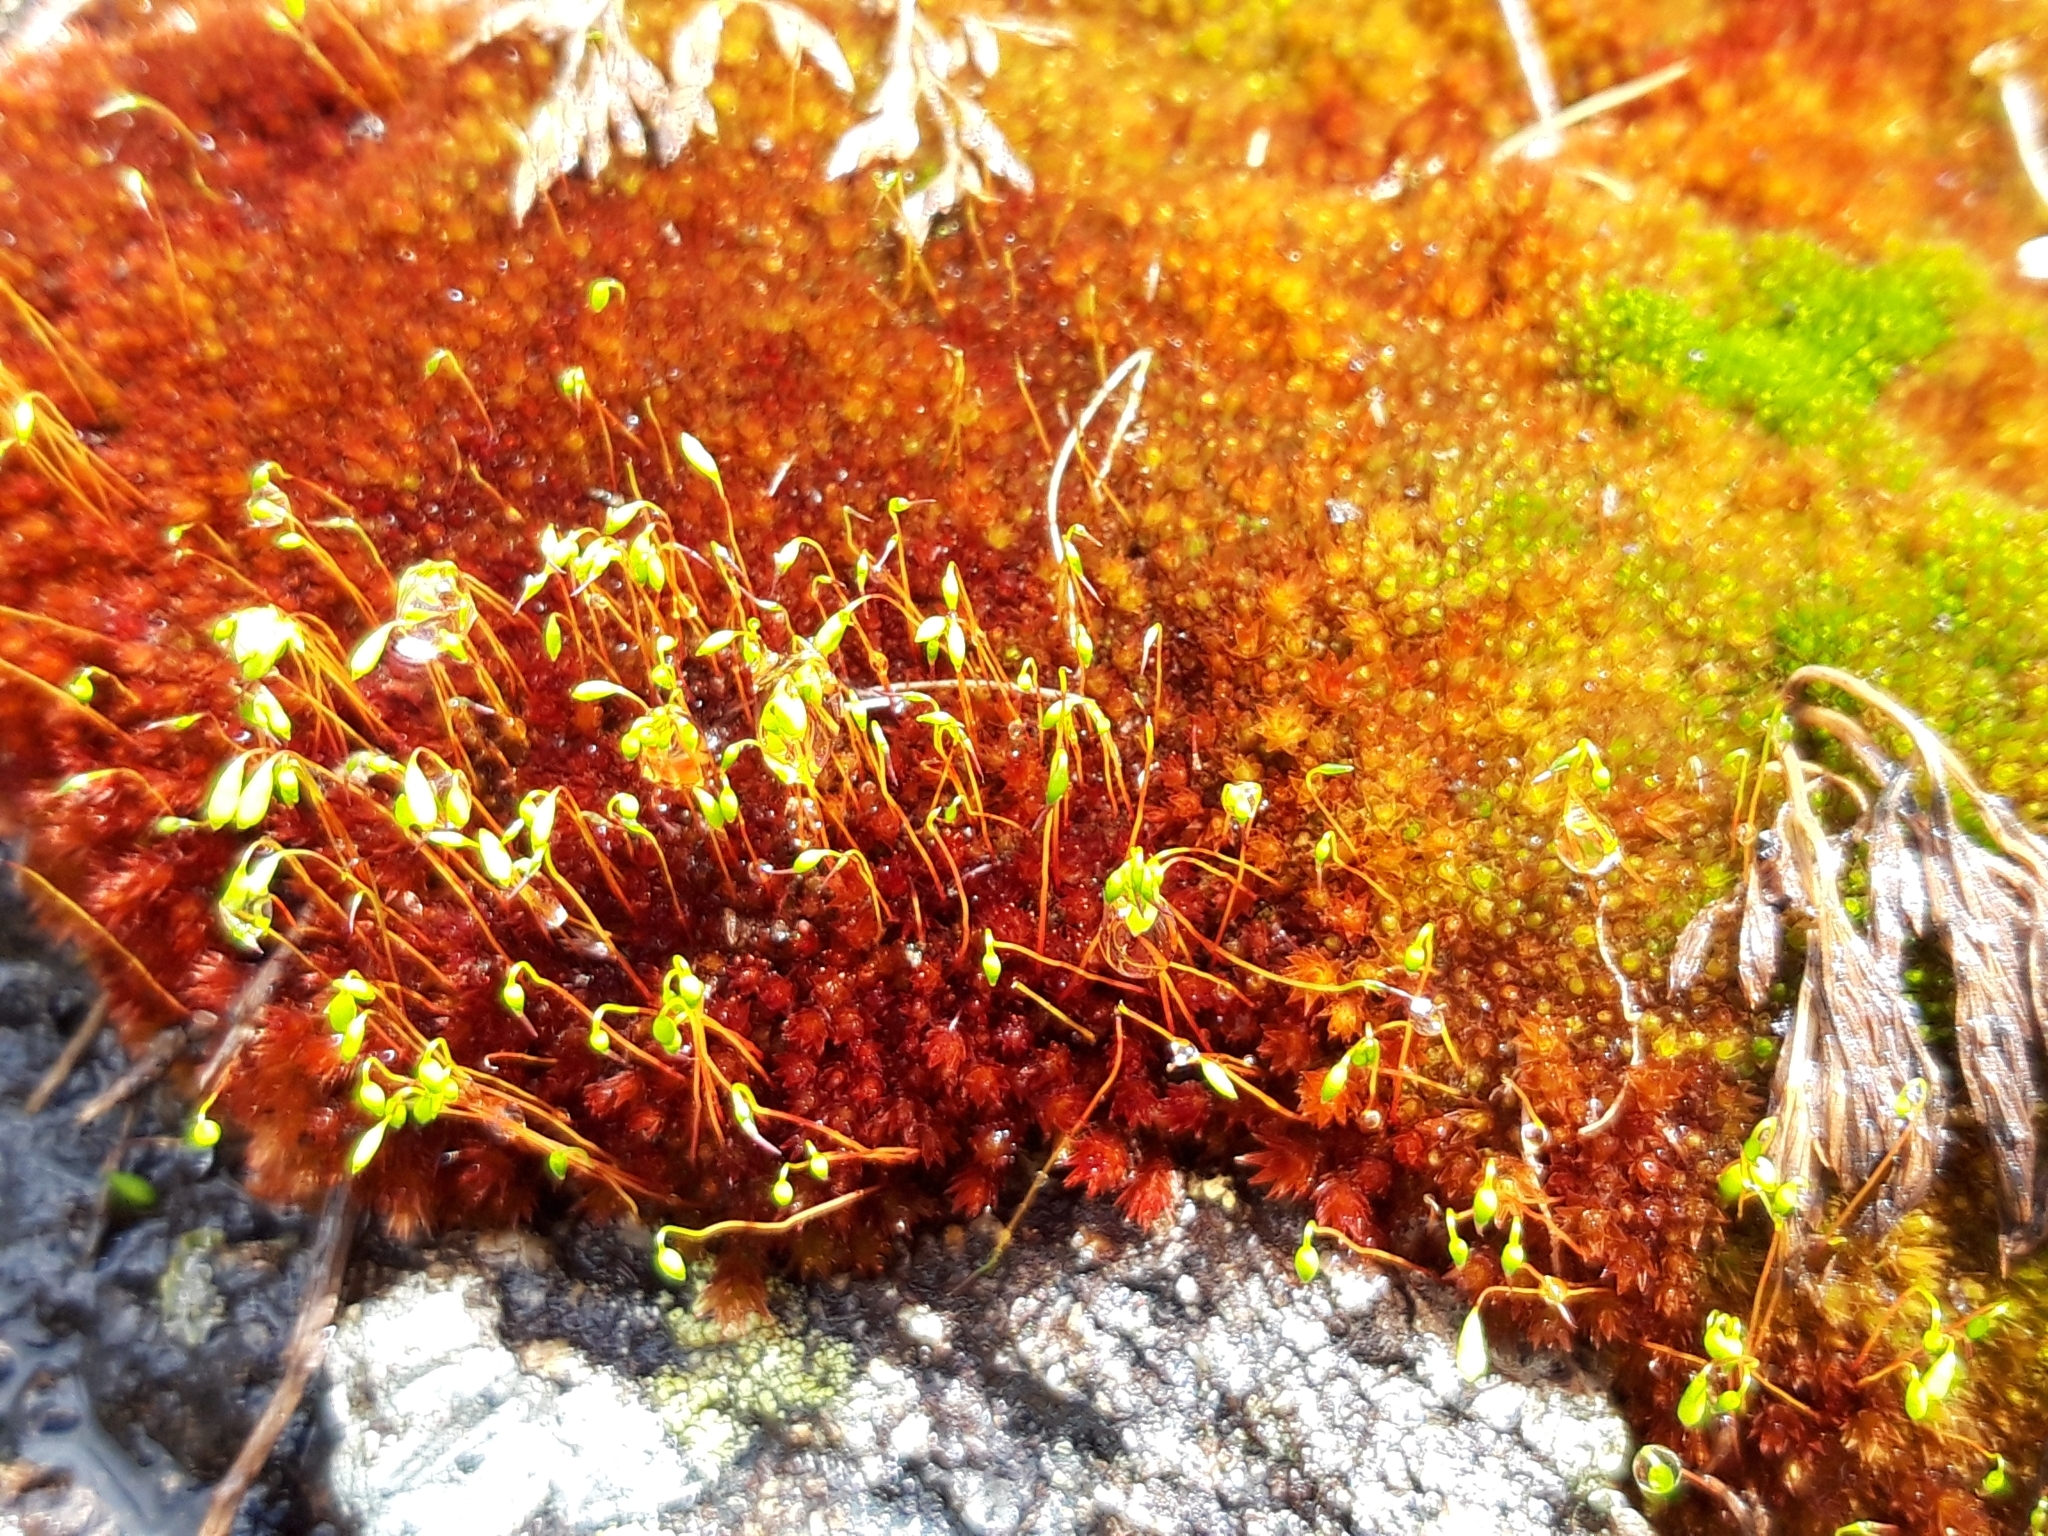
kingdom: Plantae
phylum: Bryophyta
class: Bryopsida
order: Bryales
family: Bryaceae
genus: Imbribryum
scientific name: Imbribryum alpinum
